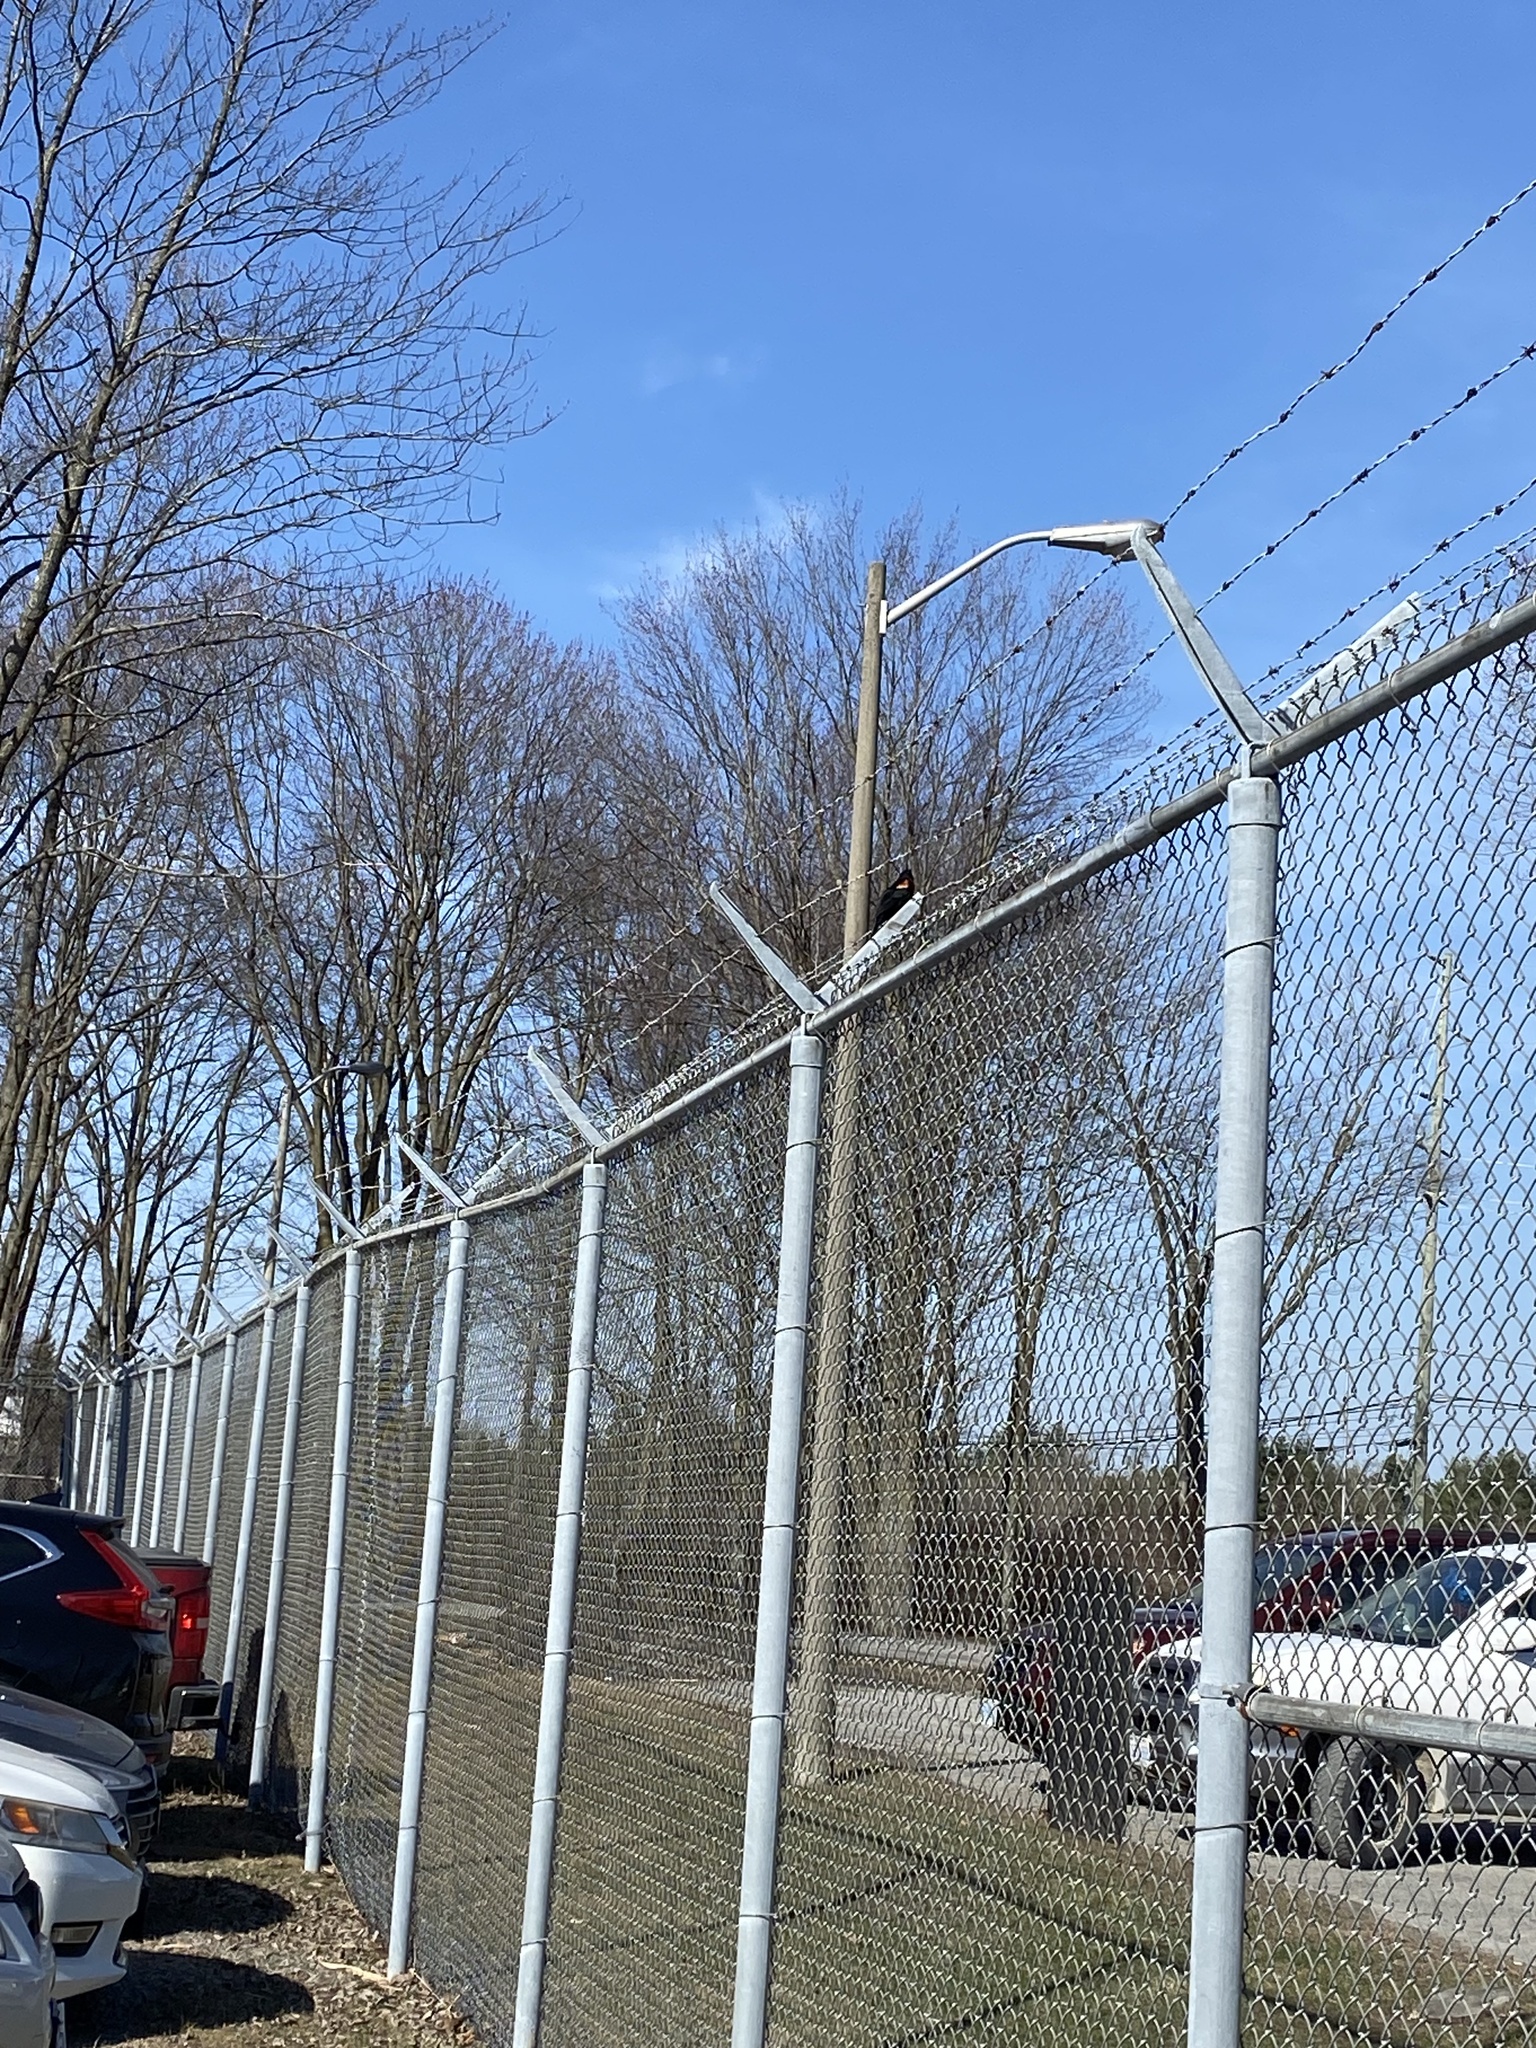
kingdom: Animalia
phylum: Chordata
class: Aves
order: Passeriformes
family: Icteridae
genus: Agelaius
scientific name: Agelaius phoeniceus
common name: Red-winged blackbird
